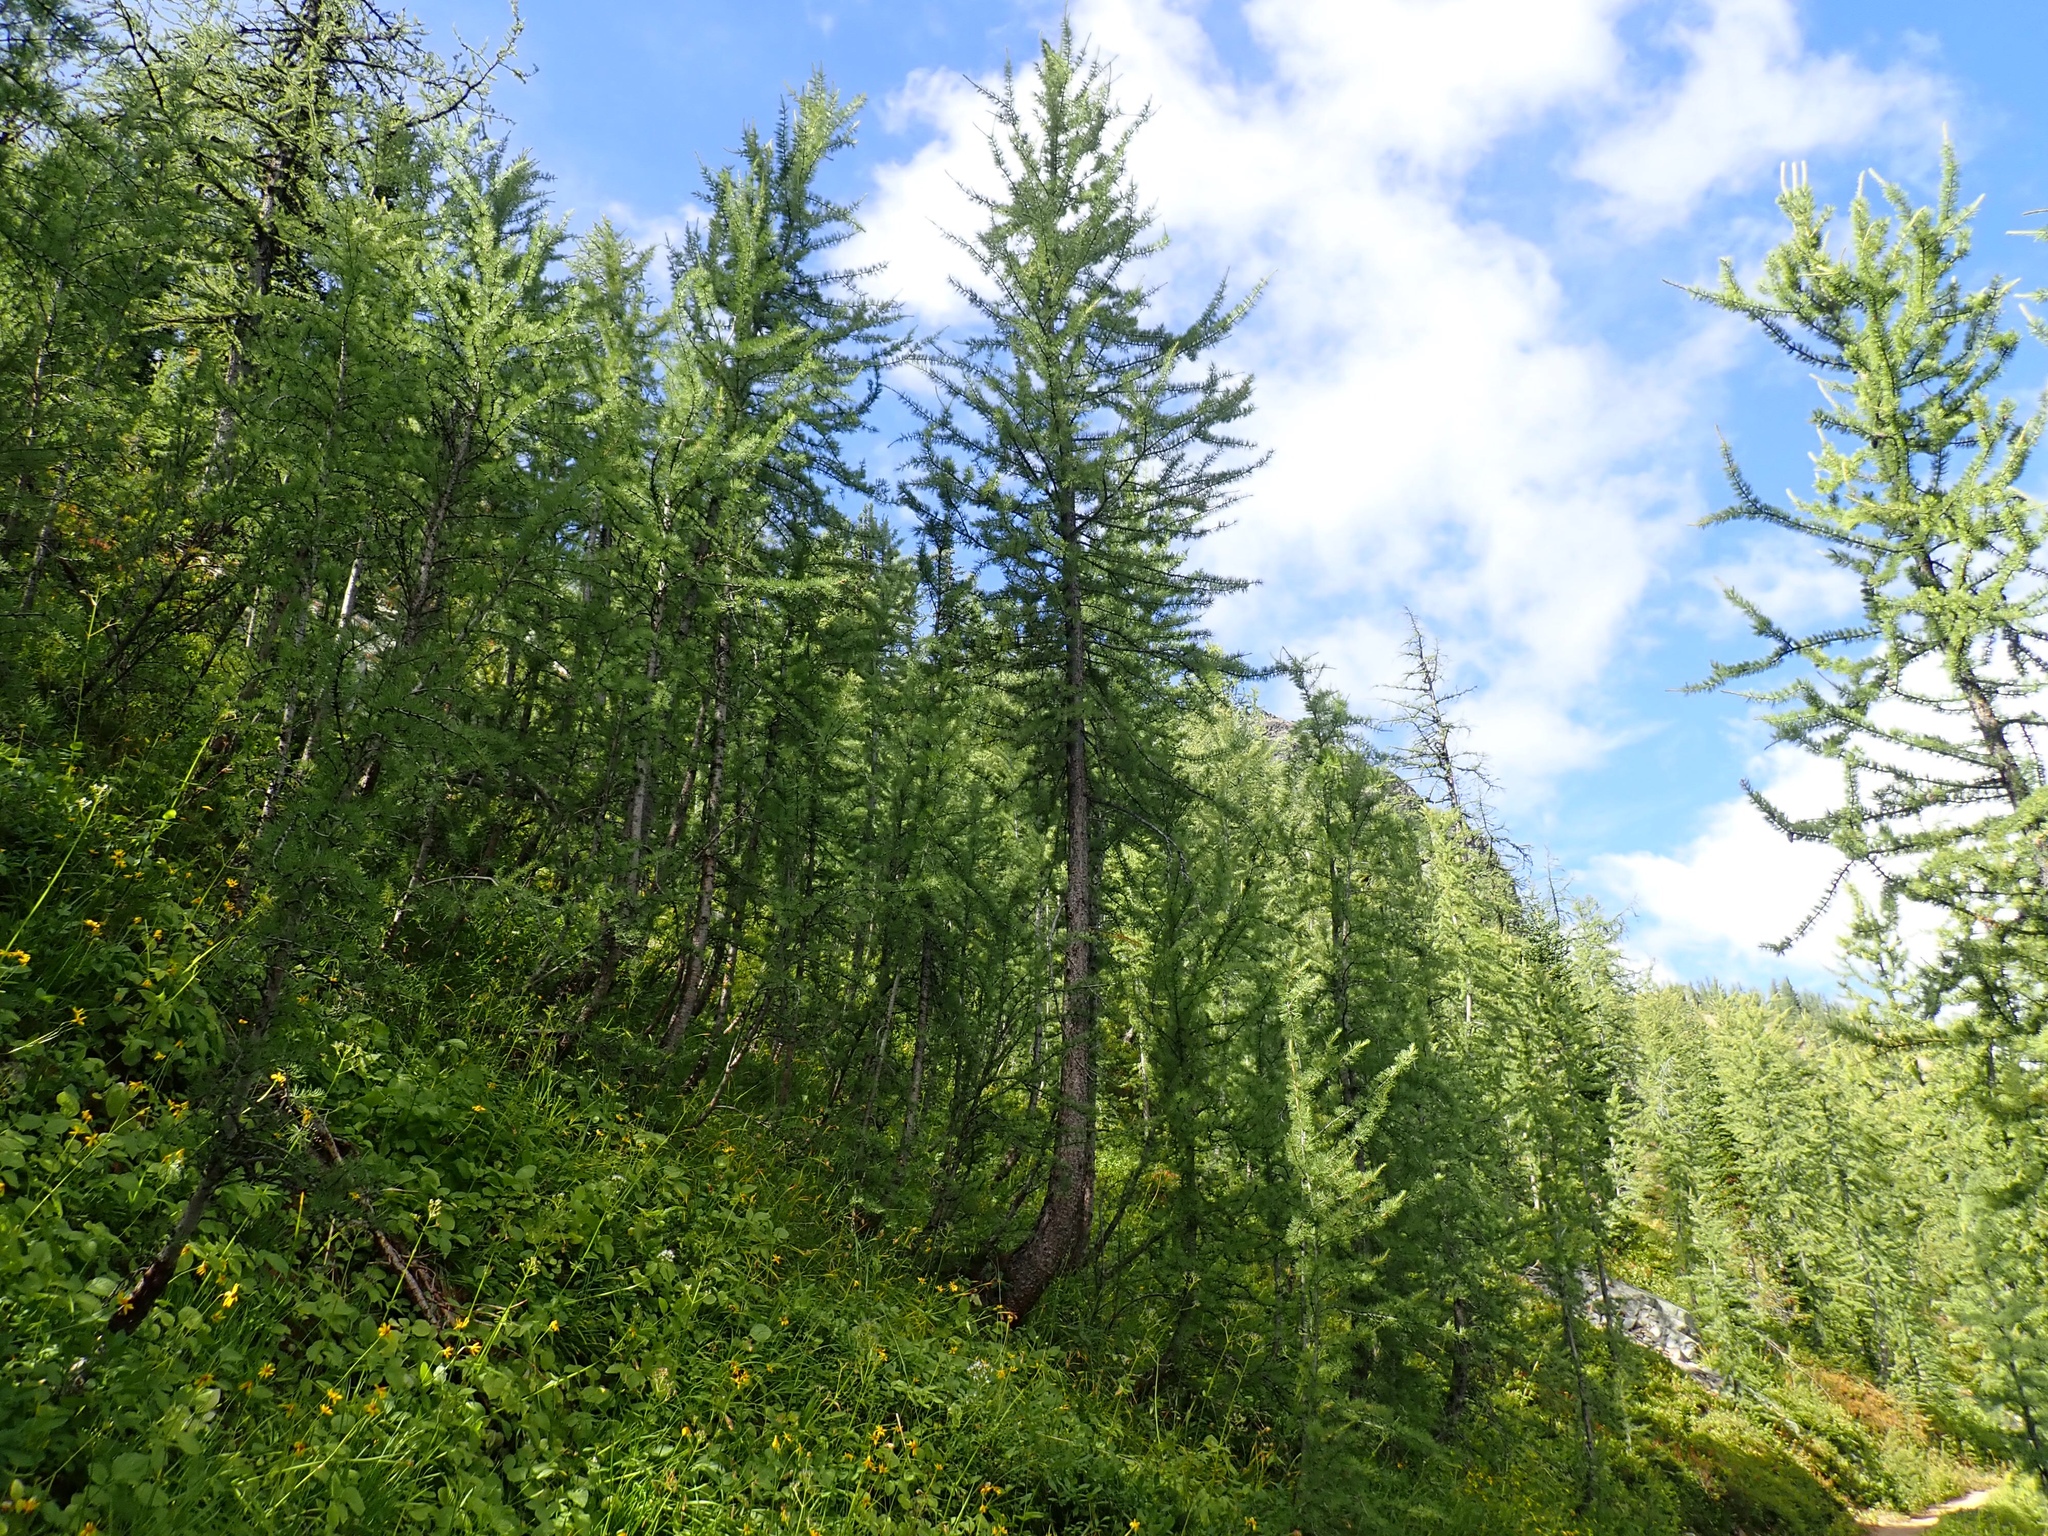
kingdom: Plantae
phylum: Tracheophyta
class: Pinopsida
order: Pinales
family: Pinaceae
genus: Larix
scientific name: Larix lyallii
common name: Alpine larch
